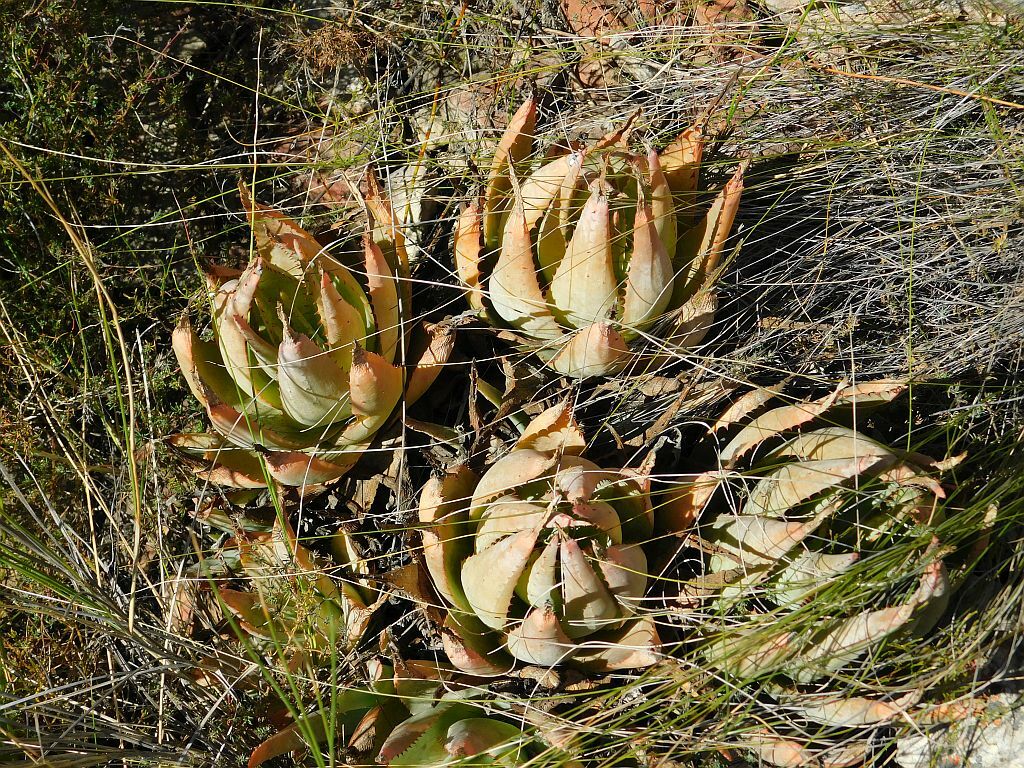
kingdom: Plantae
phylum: Tracheophyta
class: Liliopsida
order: Asparagales
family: Asphodelaceae
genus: Aloe
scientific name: Aloe glauca
